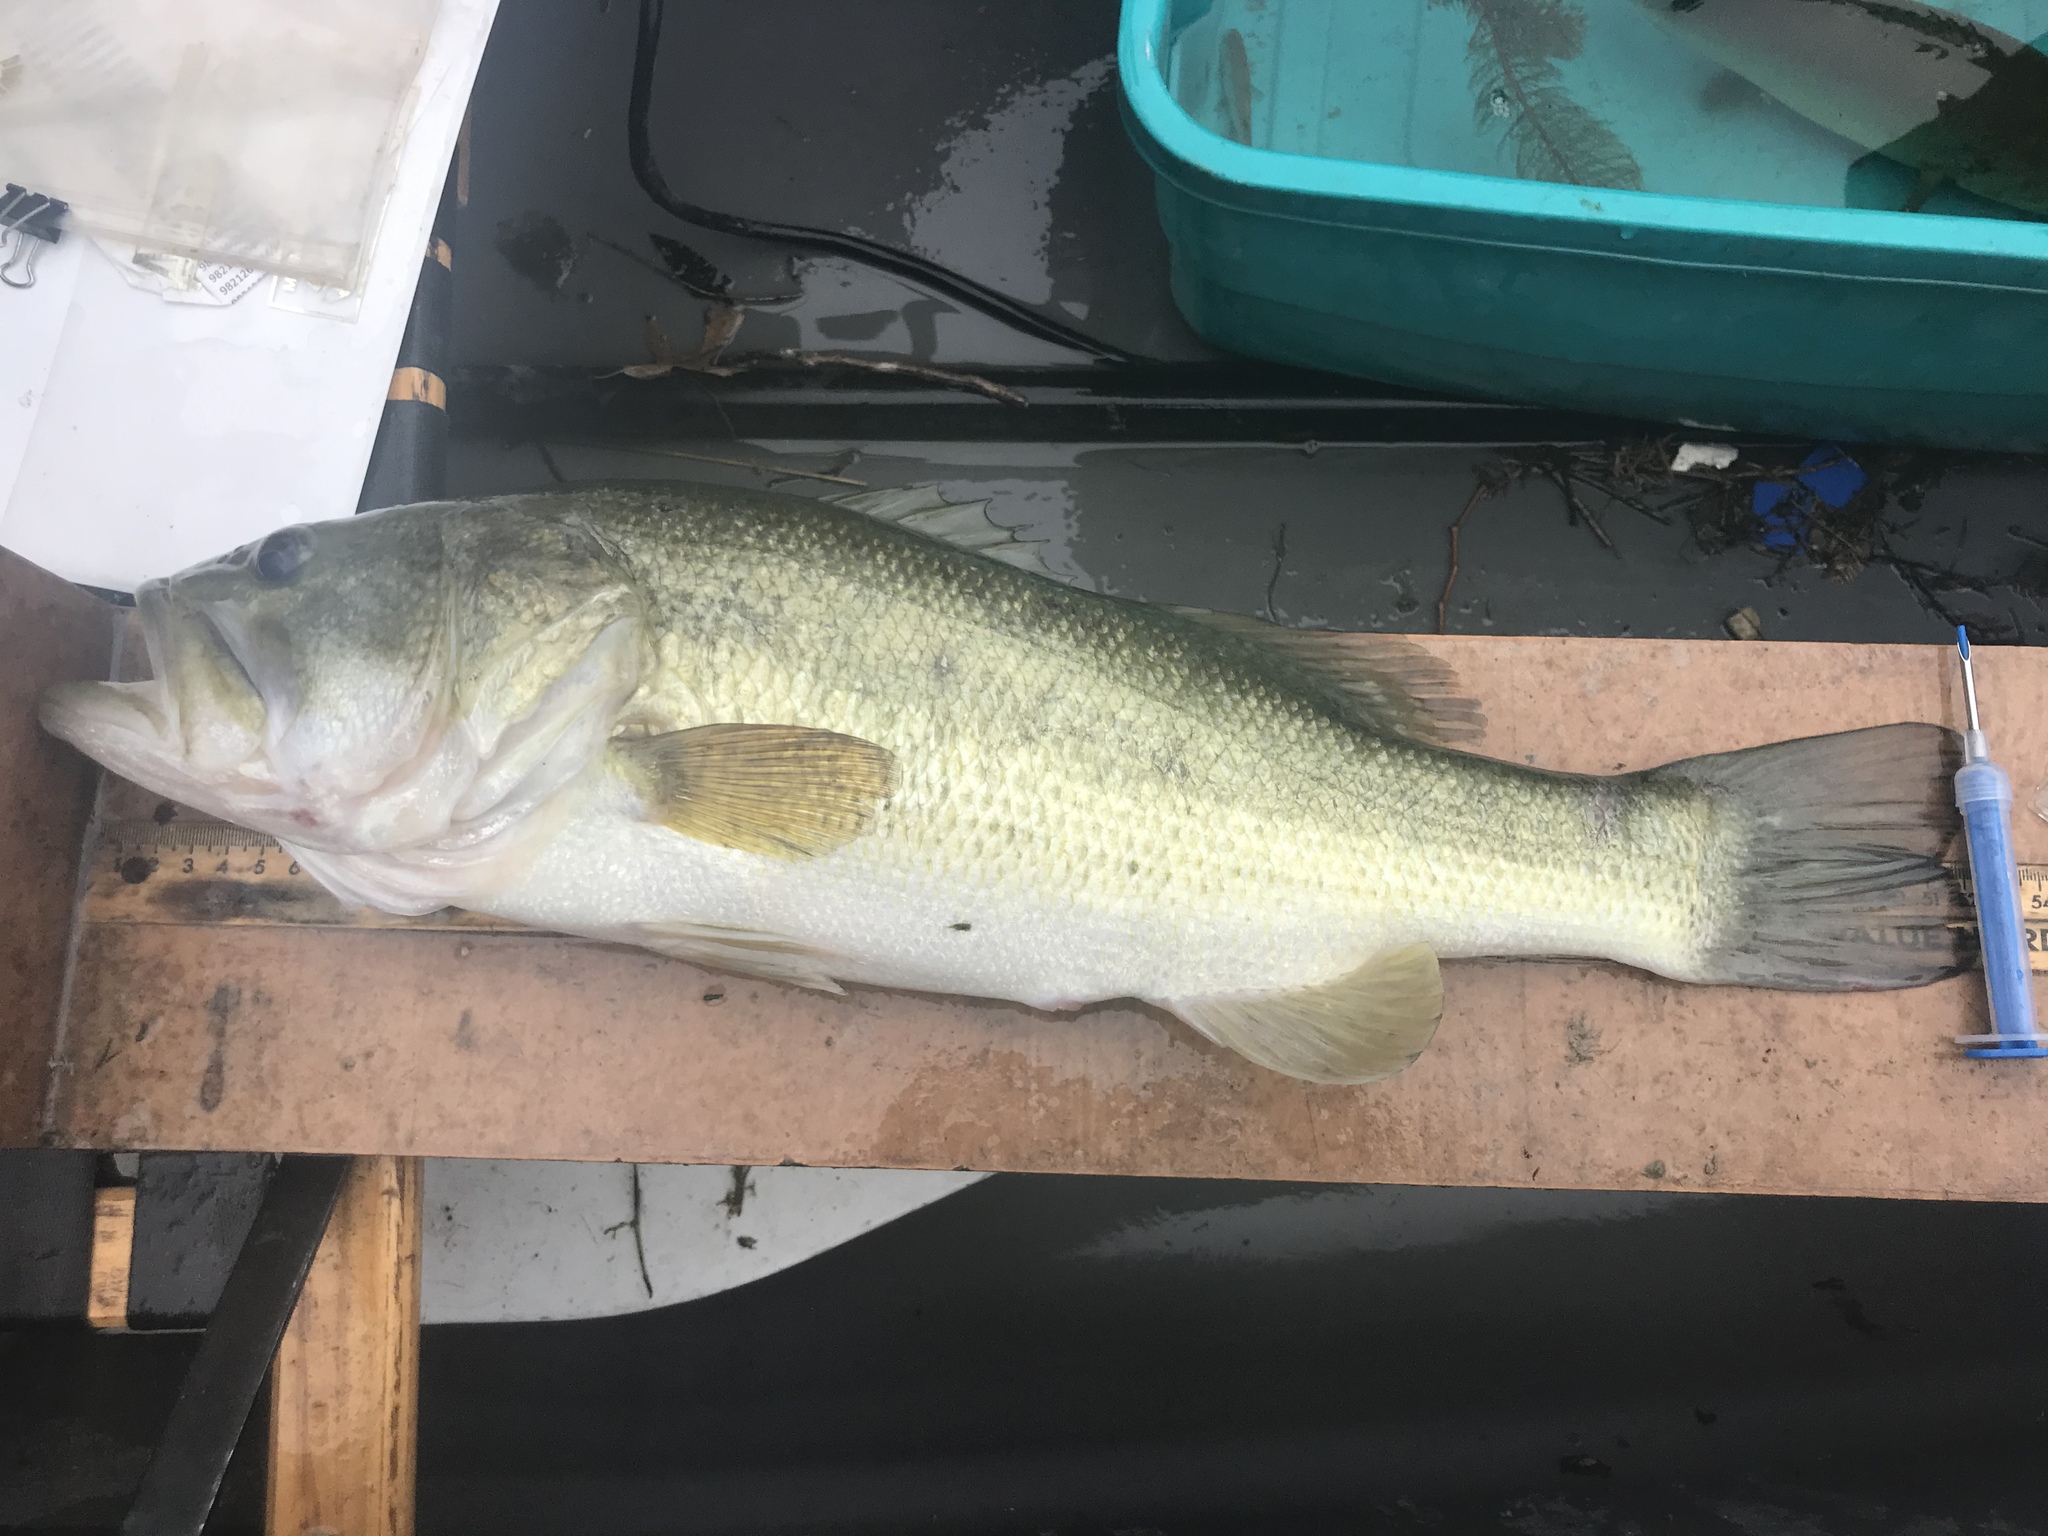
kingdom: Animalia
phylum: Chordata
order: Perciformes
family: Centrarchidae
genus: Micropterus
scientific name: Micropterus
